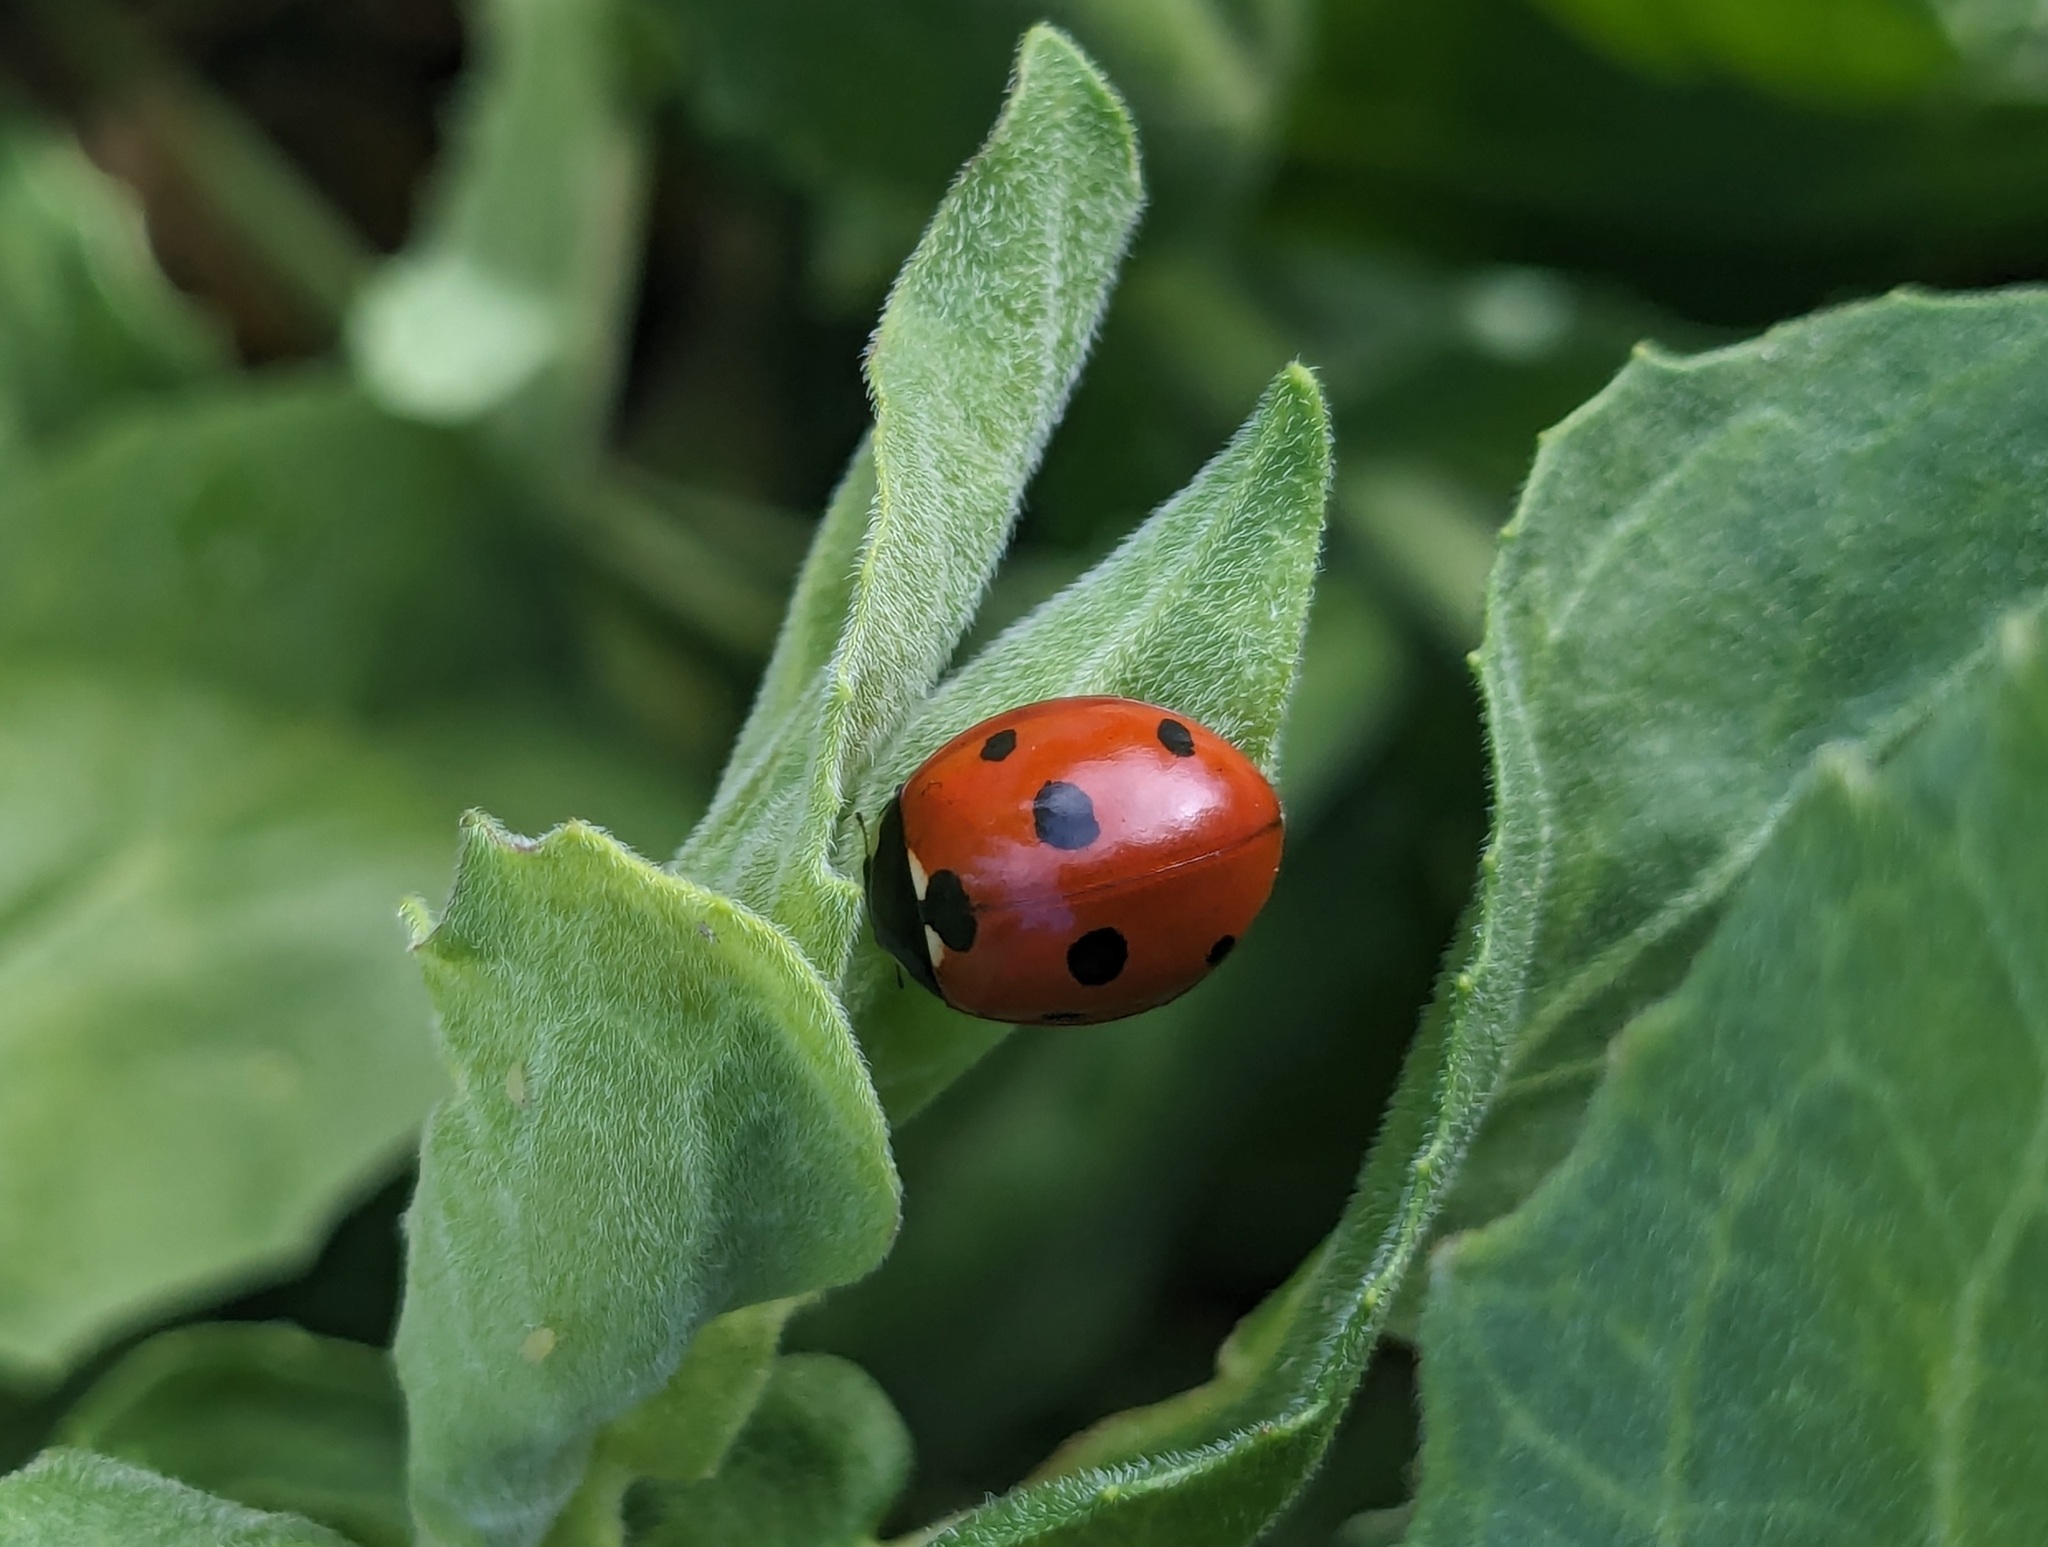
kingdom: Animalia
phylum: Arthropoda
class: Insecta
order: Coleoptera
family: Coccinellidae
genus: Coccinella
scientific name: Coccinella septempunctata
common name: Sevenspotted lady beetle
